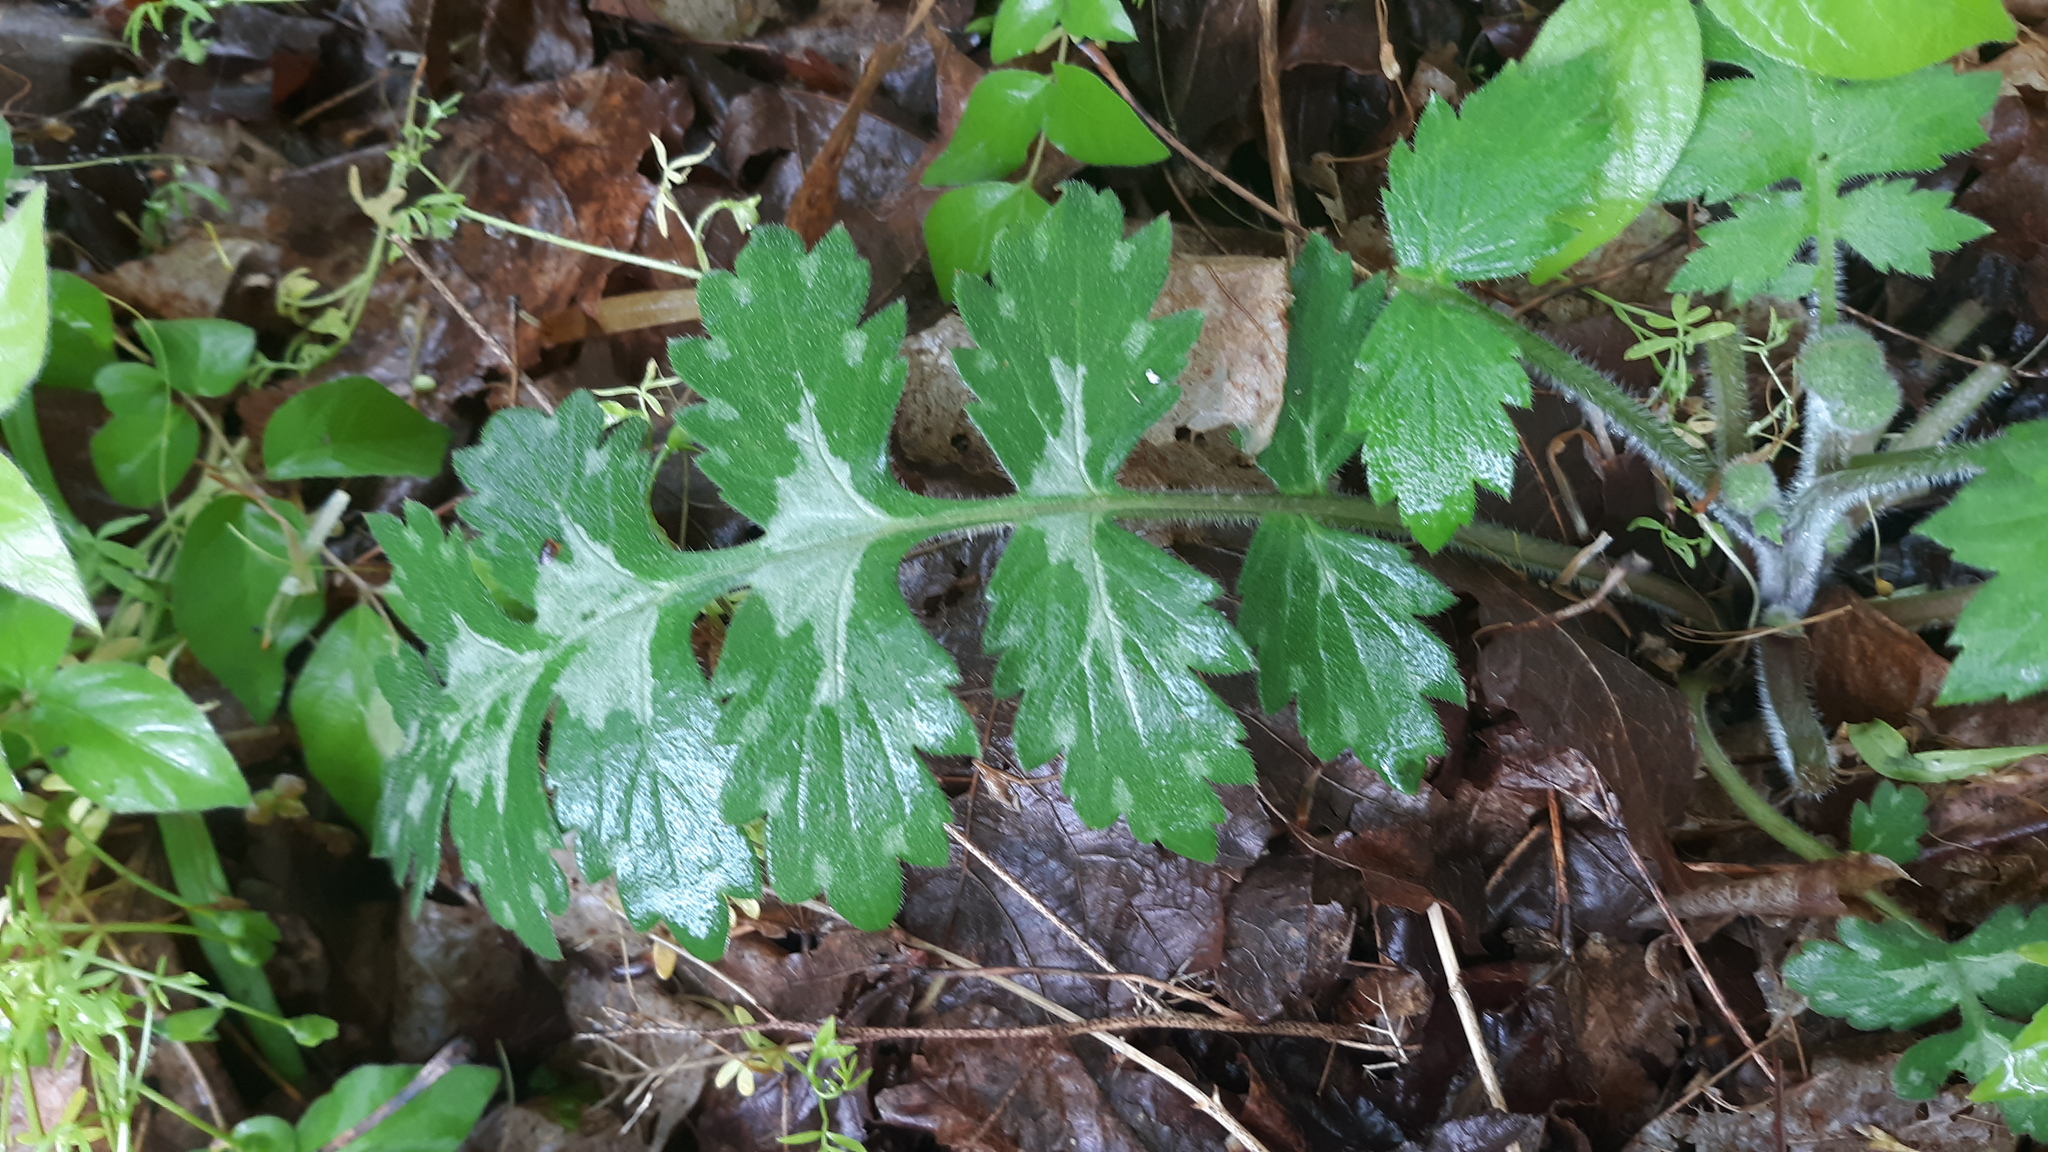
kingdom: Plantae
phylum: Tracheophyta
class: Magnoliopsida
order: Boraginales
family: Hydrophyllaceae
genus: Hydrophyllum
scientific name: Hydrophyllum macrophyllum
